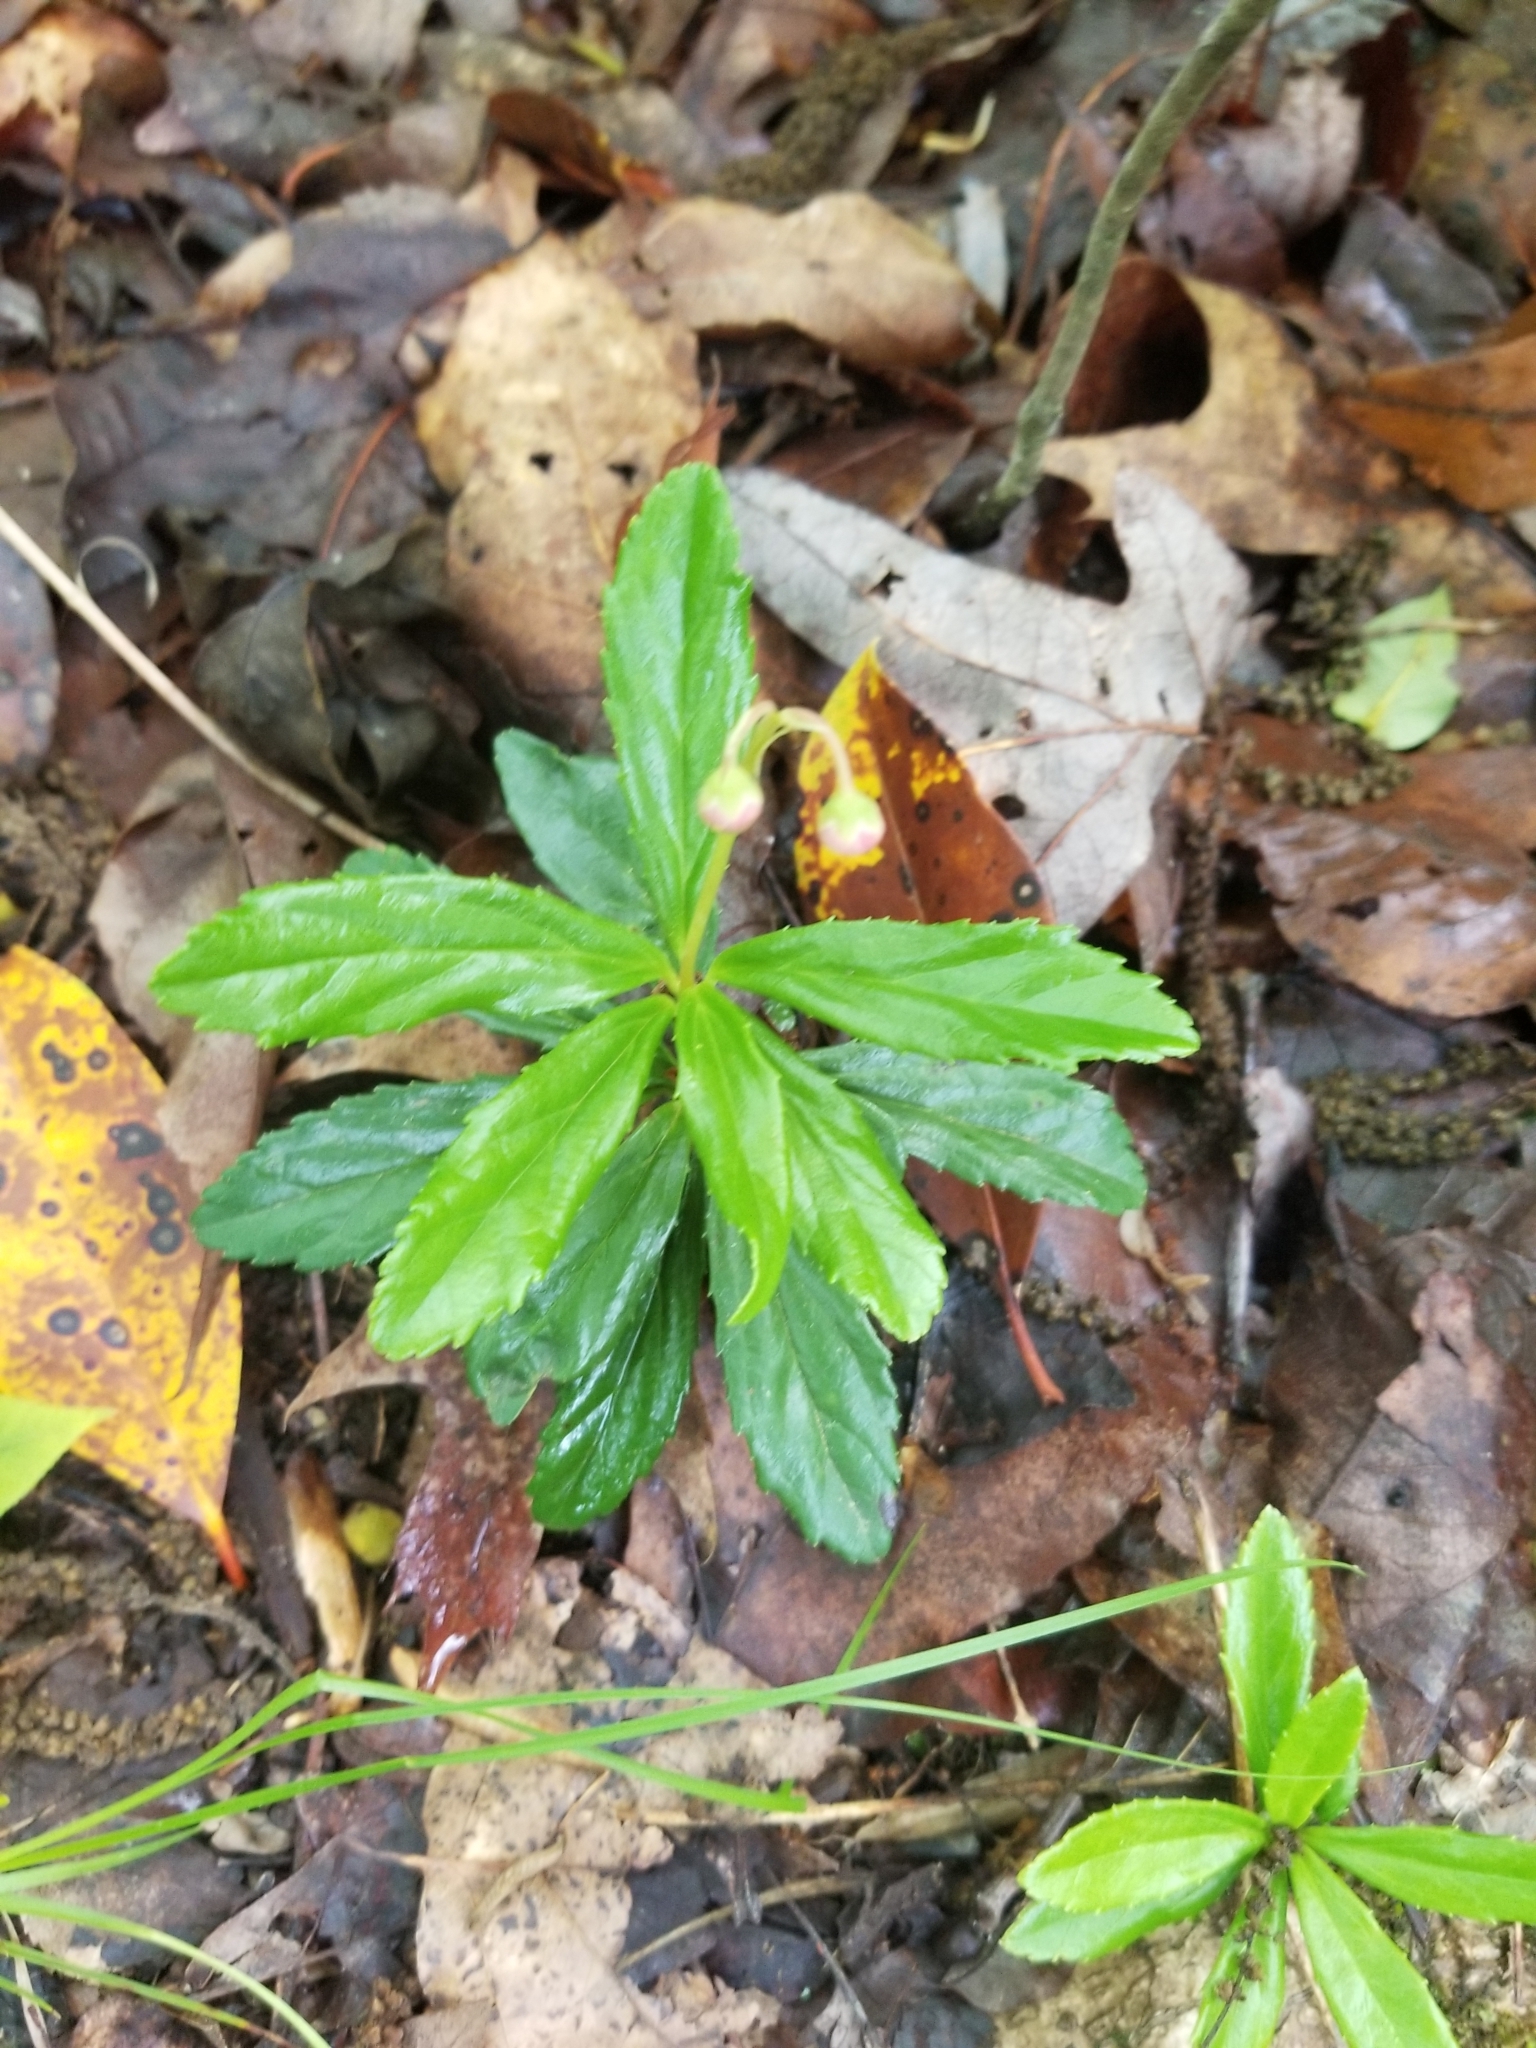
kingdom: Plantae
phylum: Tracheophyta
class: Magnoliopsida
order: Ericales
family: Ericaceae
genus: Chimaphila
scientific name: Chimaphila umbellata
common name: Pipsissewa
